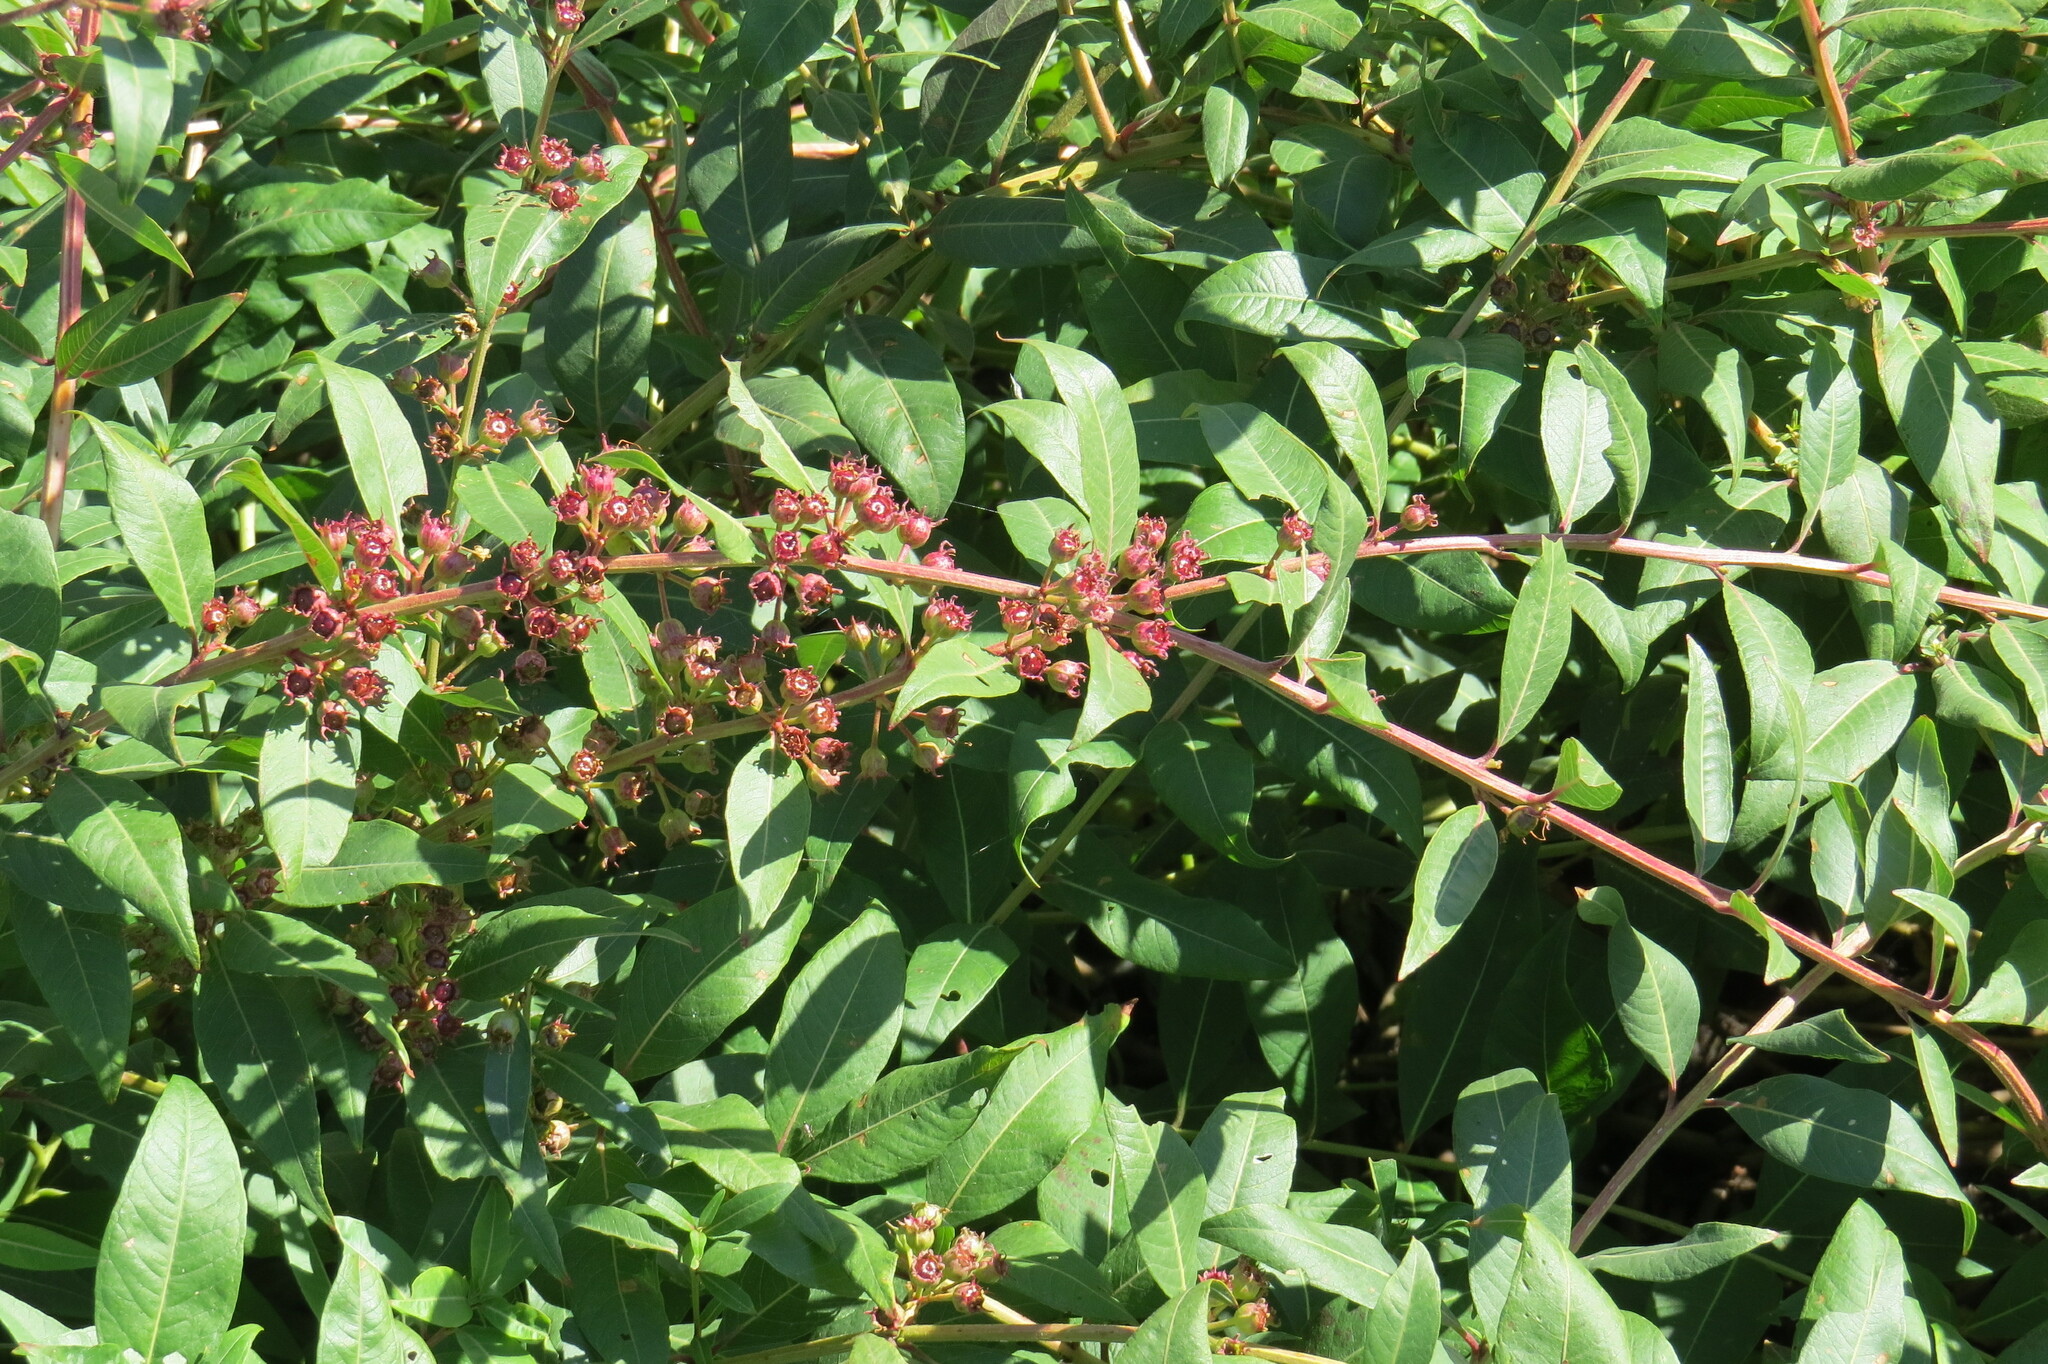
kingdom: Plantae
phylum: Tracheophyta
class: Magnoliopsida
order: Myrtales
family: Lythraceae
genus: Decodon
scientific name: Decodon verticillatus
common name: Hairy swamp loosestrife
